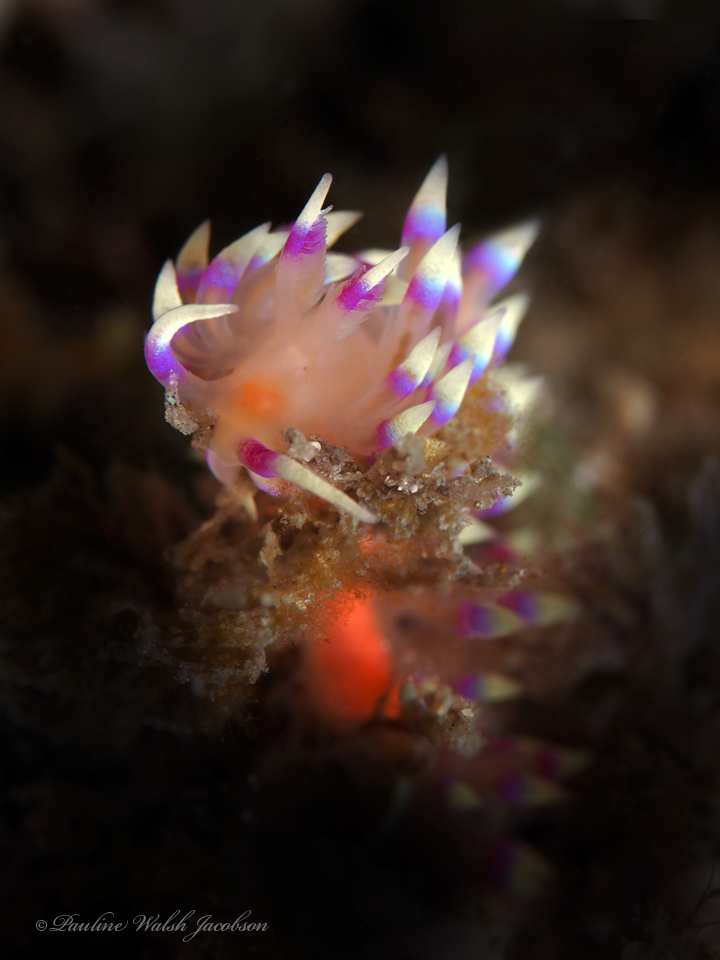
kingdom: Animalia
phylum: Mollusca
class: Gastropoda
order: Nudibranchia
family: Flabellinidae
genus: Coryphellina
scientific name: Coryphellina marcusorum
